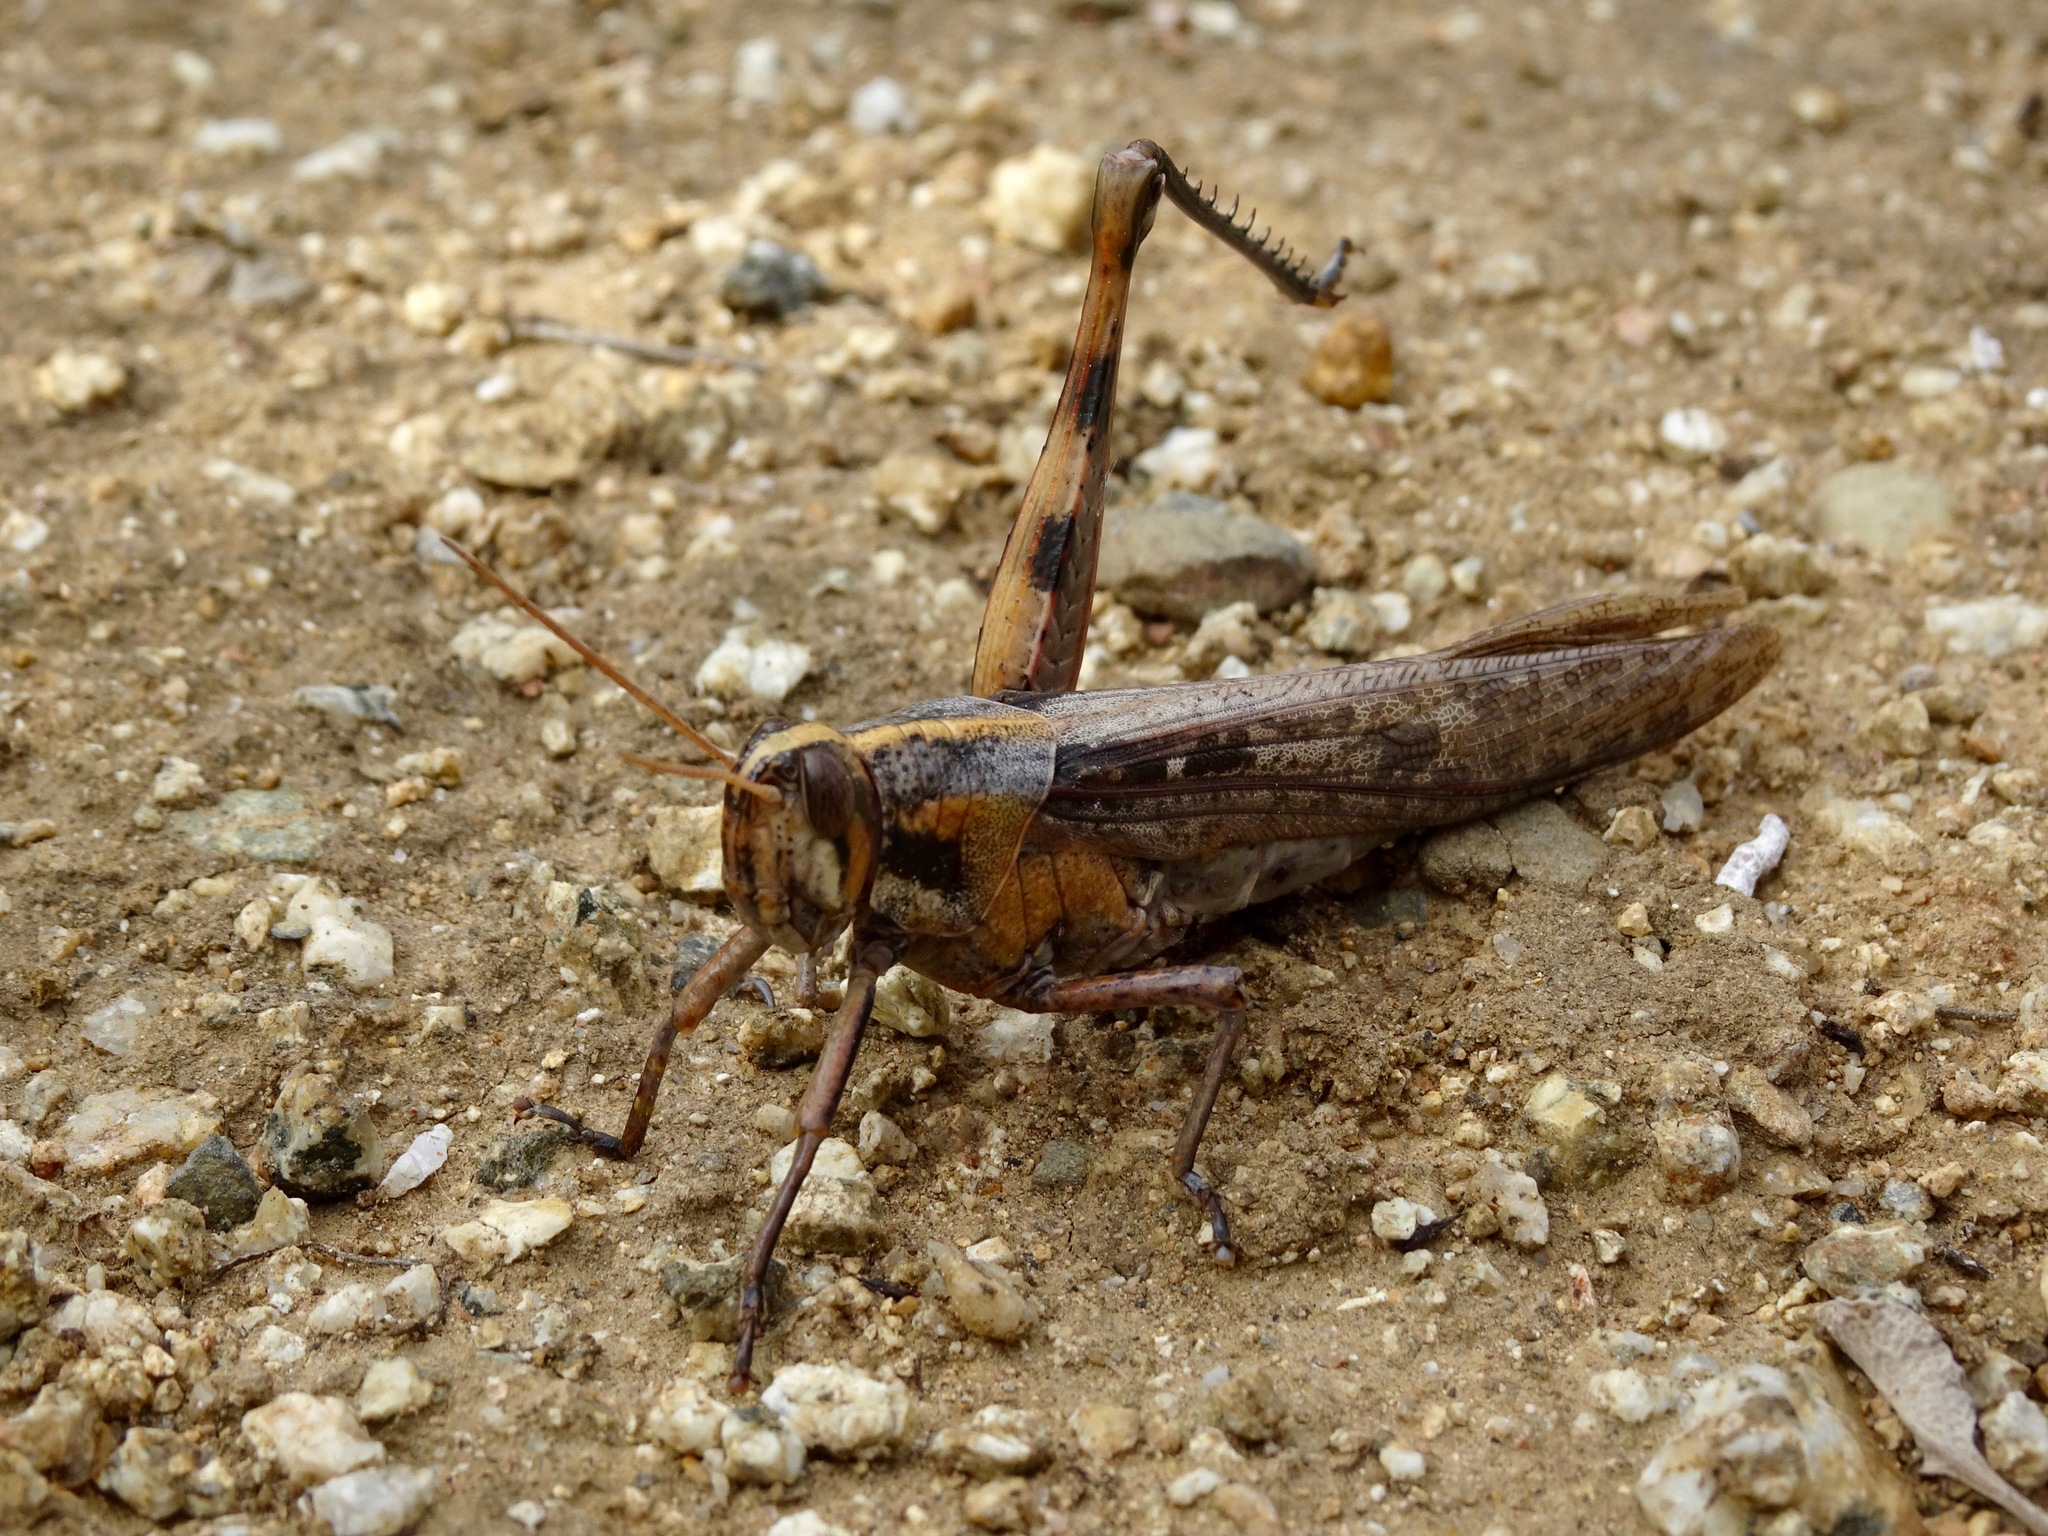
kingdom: Animalia
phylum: Arthropoda
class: Insecta
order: Orthoptera
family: Acrididae
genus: Schistocerca
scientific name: Schistocerca nitens
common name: Vagrant grasshopper
